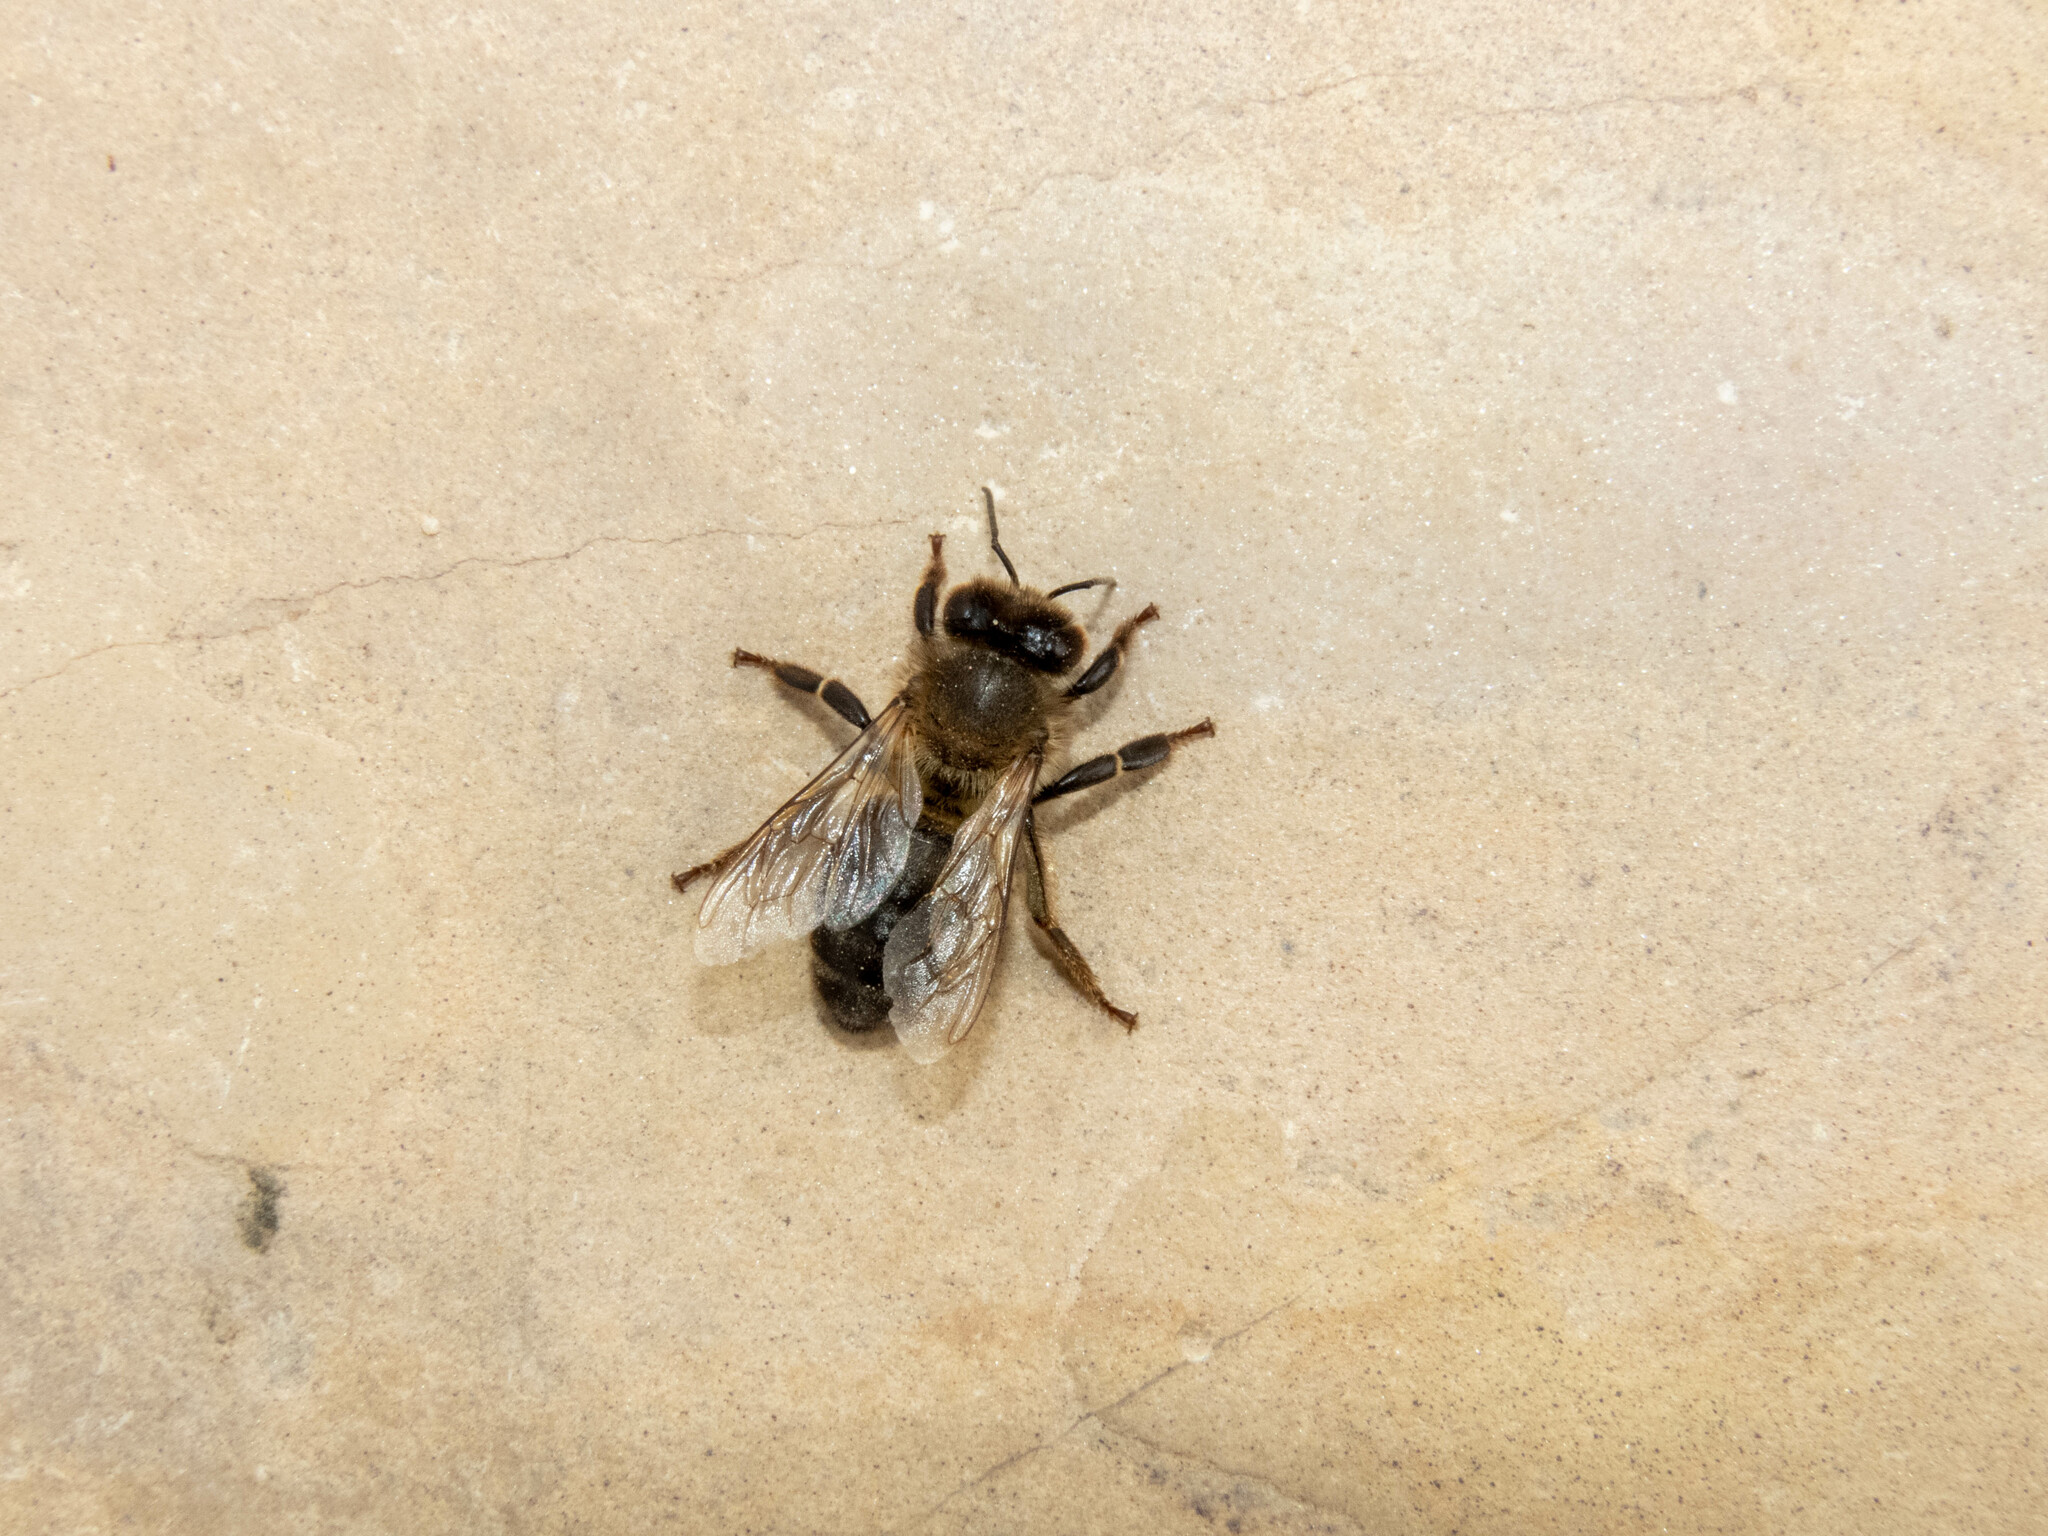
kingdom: Animalia
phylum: Arthropoda
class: Insecta
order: Hymenoptera
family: Apidae
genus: Apis
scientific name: Apis mellifera
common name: Honey bee
